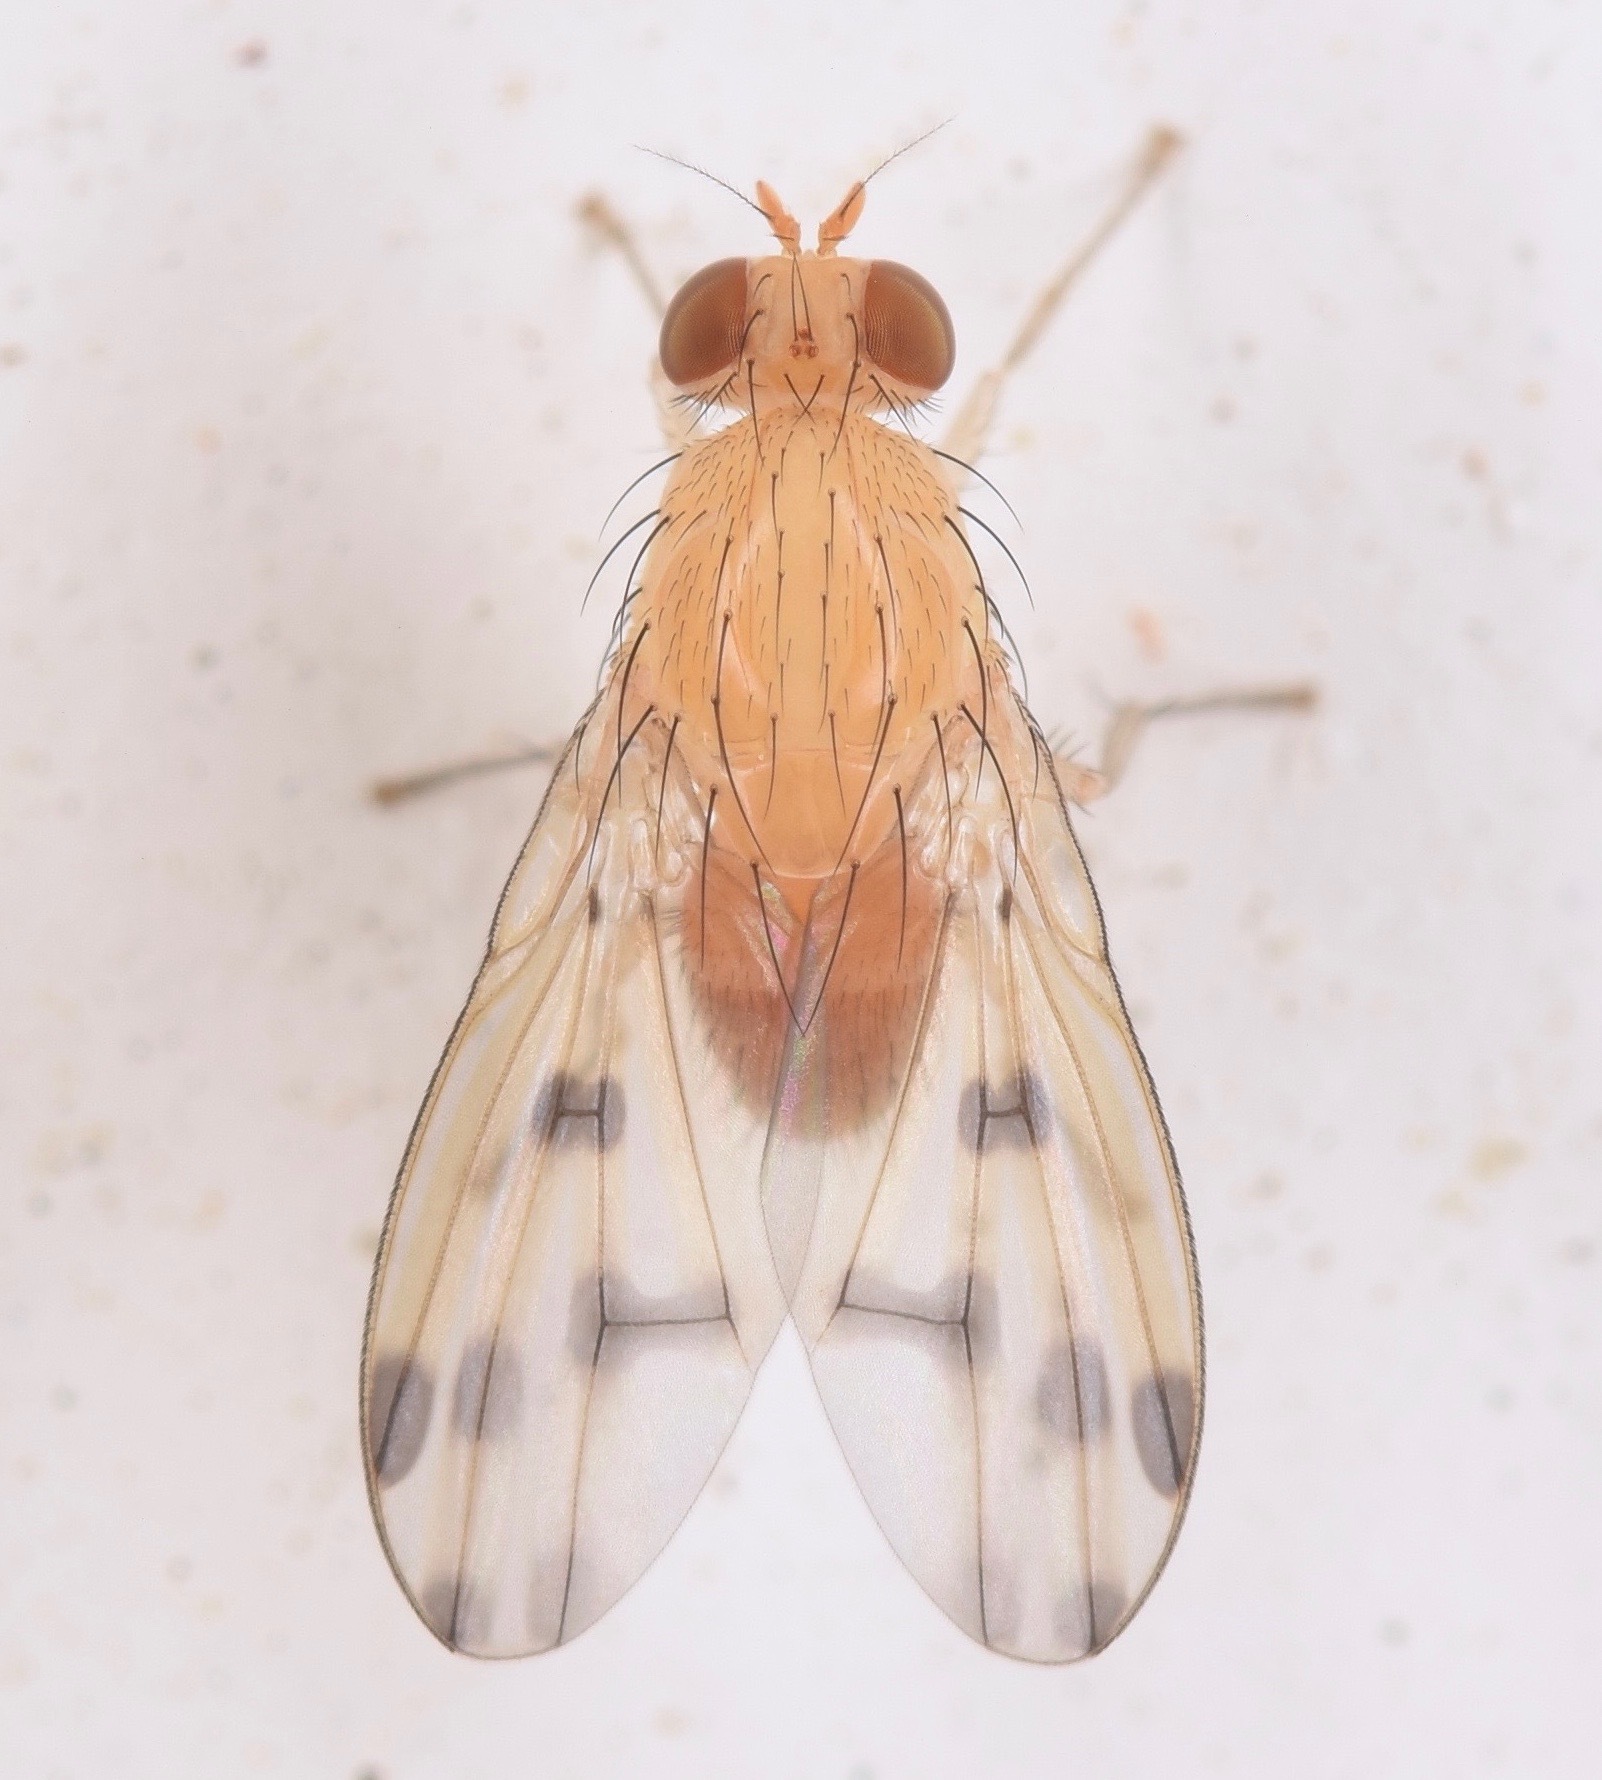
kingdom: Animalia
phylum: Arthropoda
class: Insecta
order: Diptera
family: Lauxaniidae
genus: Homoneura
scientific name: Homoneura fuscibasis
